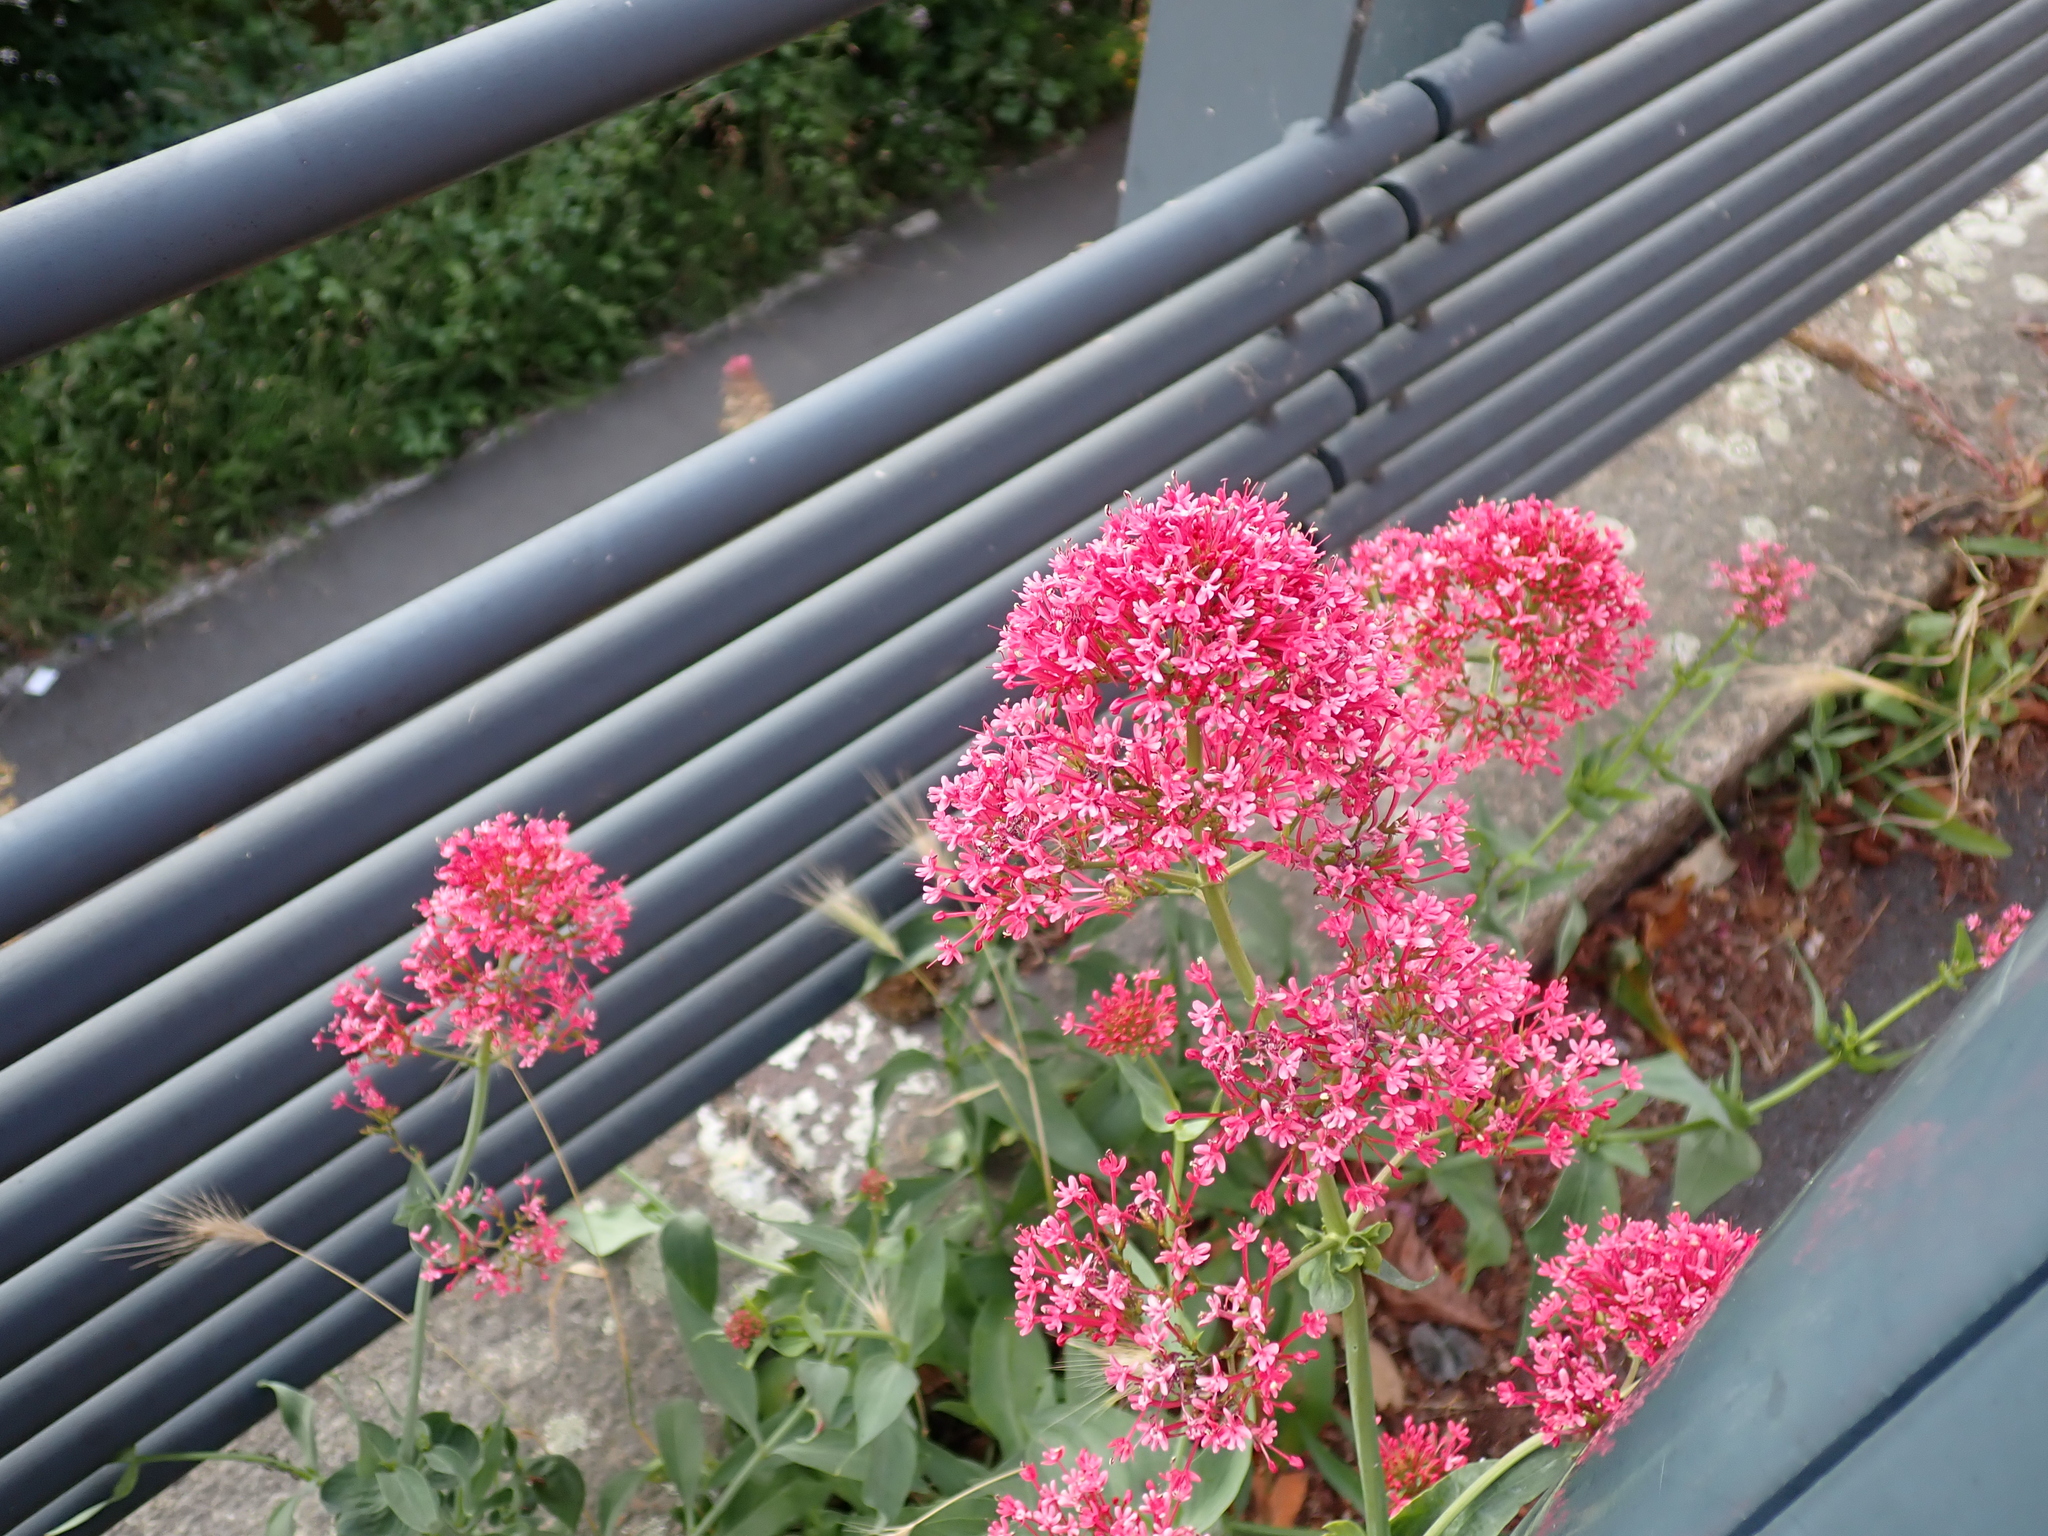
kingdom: Plantae
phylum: Tracheophyta
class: Magnoliopsida
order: Dipsacales
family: Caprifoliaceae
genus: Centranthus
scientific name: Centranthus ruber
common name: Red valerian
